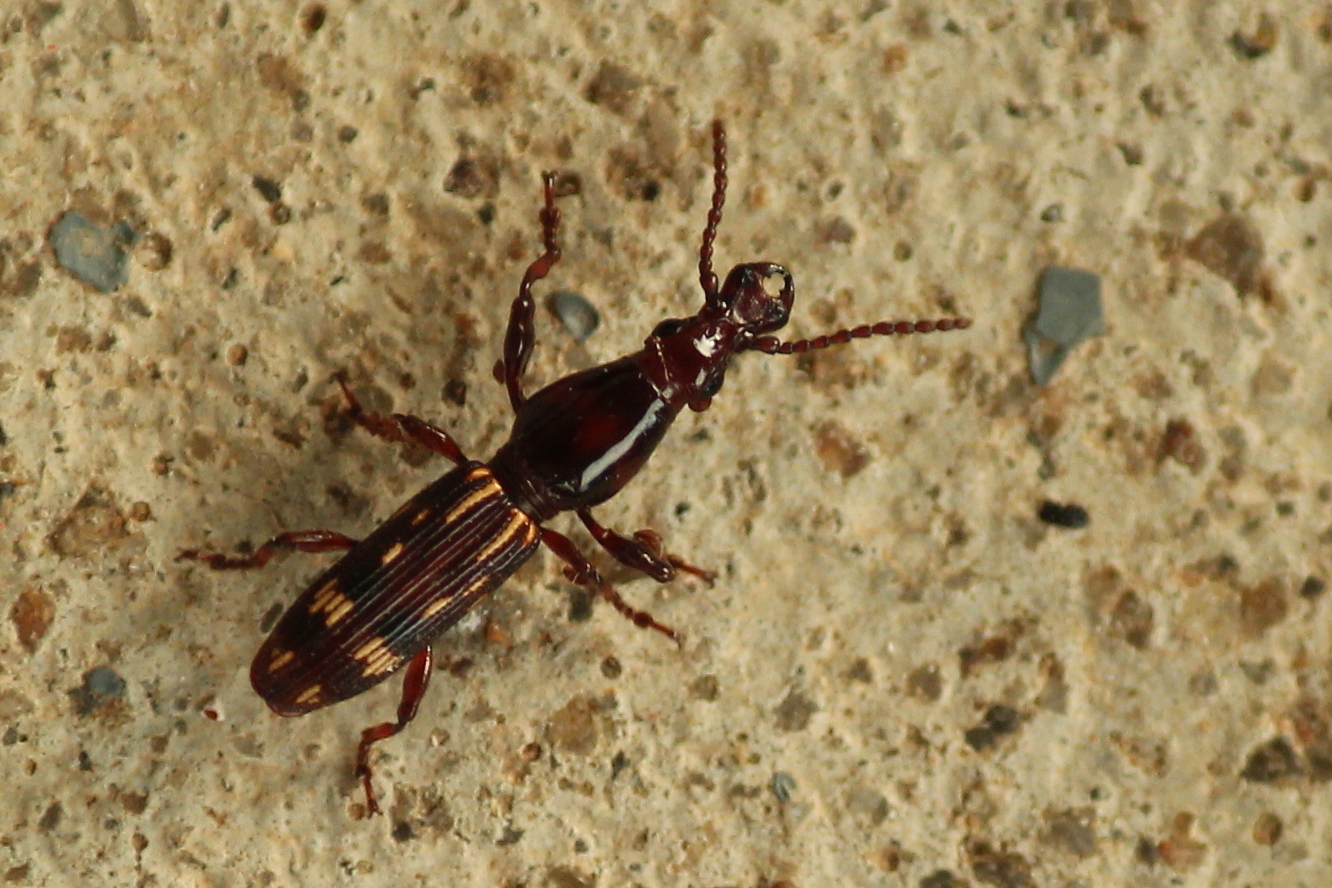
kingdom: Animalia
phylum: Arthropoda
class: Insecta
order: Coleoptera
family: Brentidae
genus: Arrenodes
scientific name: Arrenodes minutus
